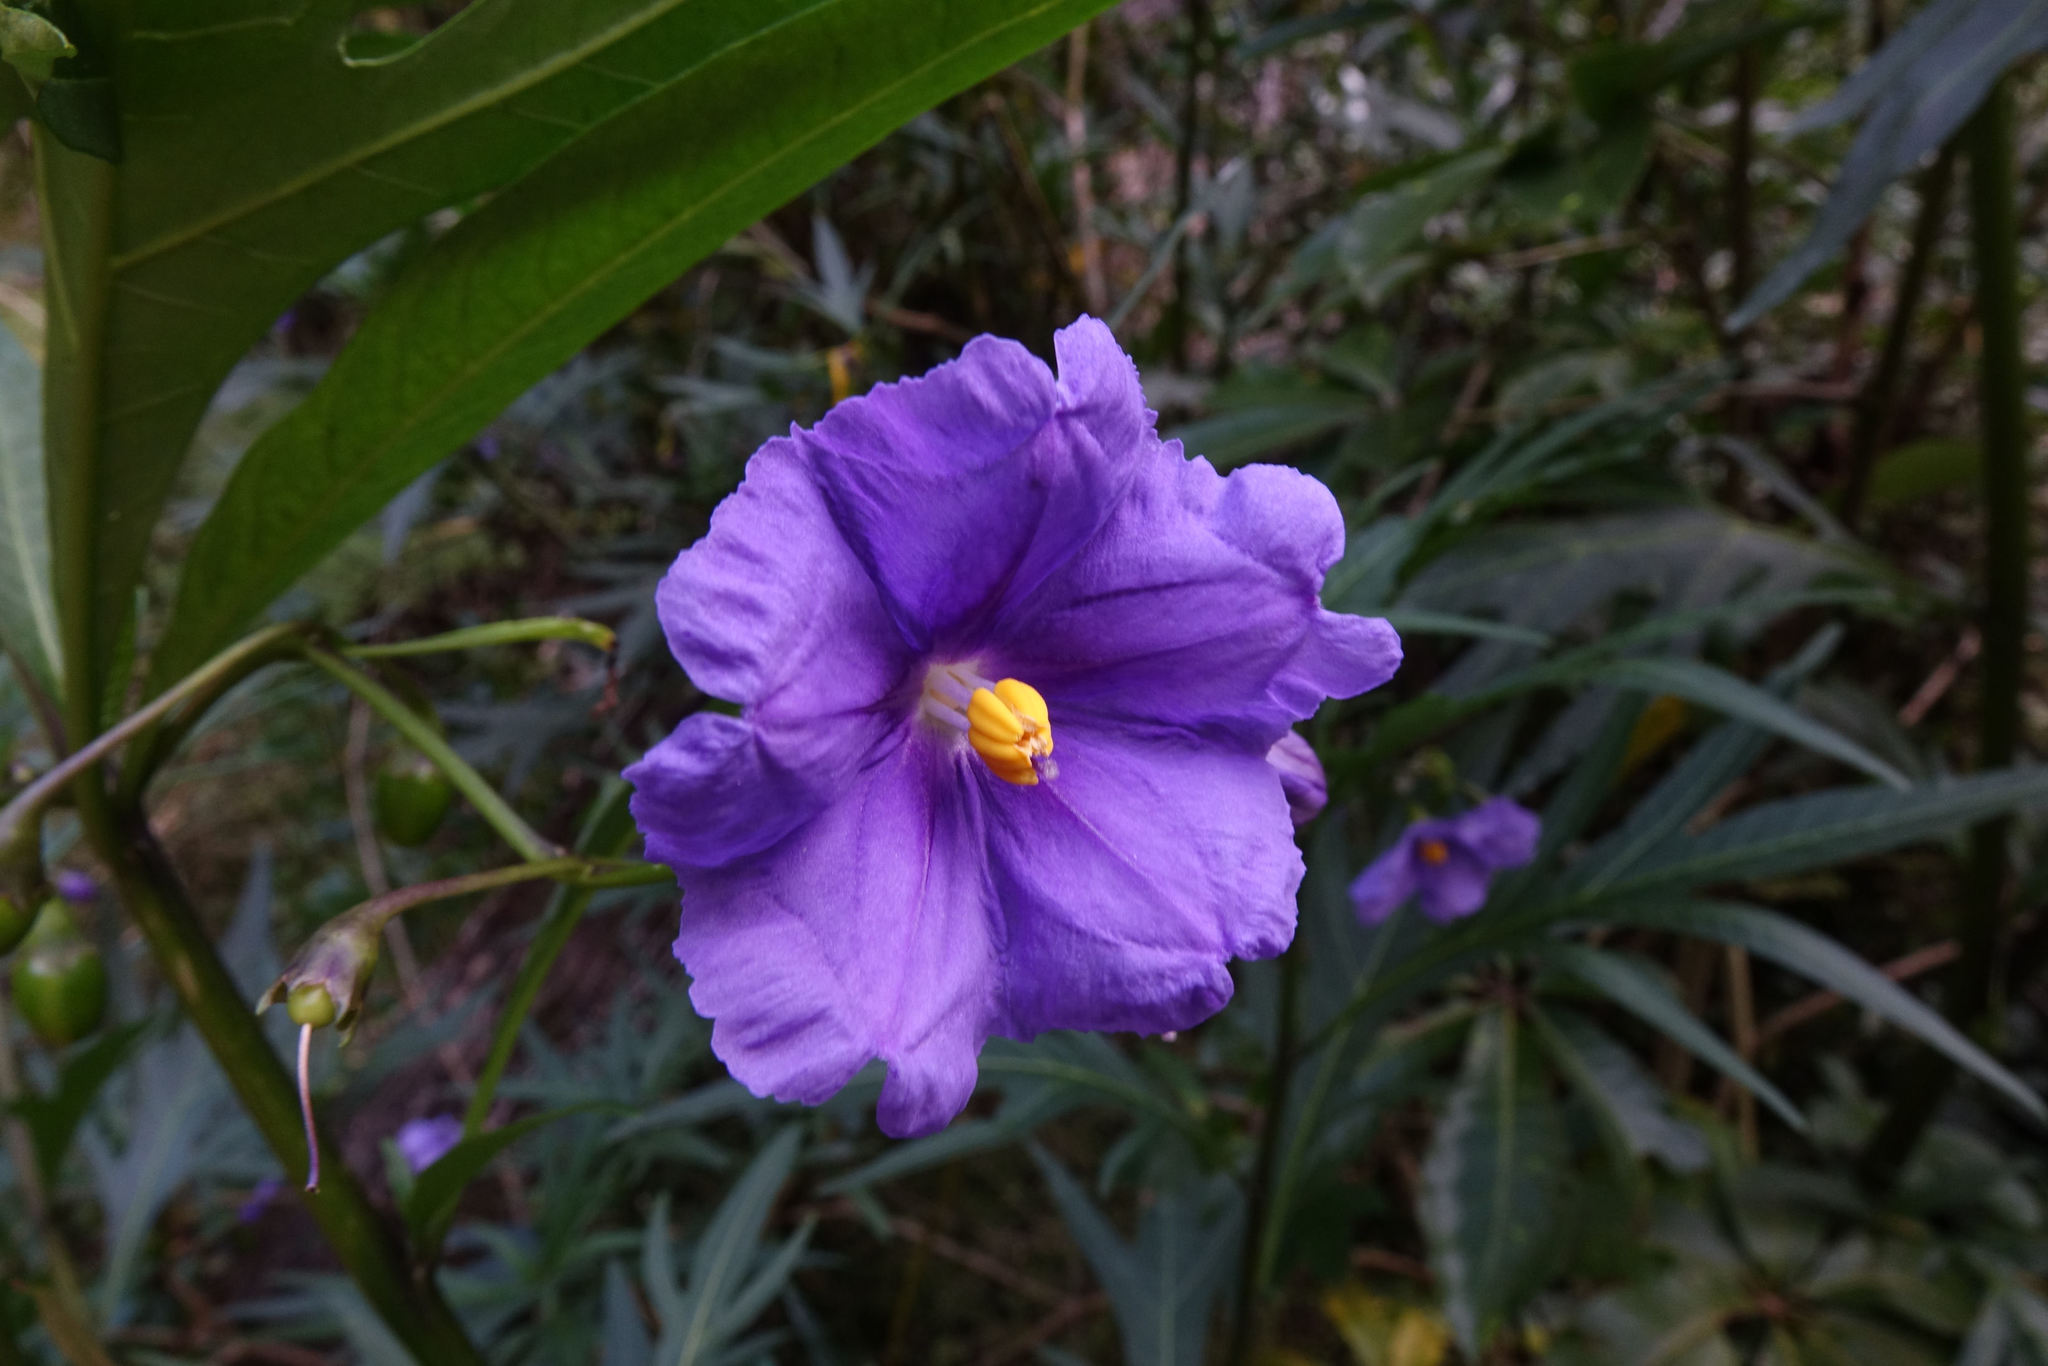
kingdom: Plantae
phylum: Tracheophyta
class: Magnoliopsida
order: Solanales
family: Solanaceae
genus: Solanum
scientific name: Solanum laciniatum
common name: Kangaroo-apple
